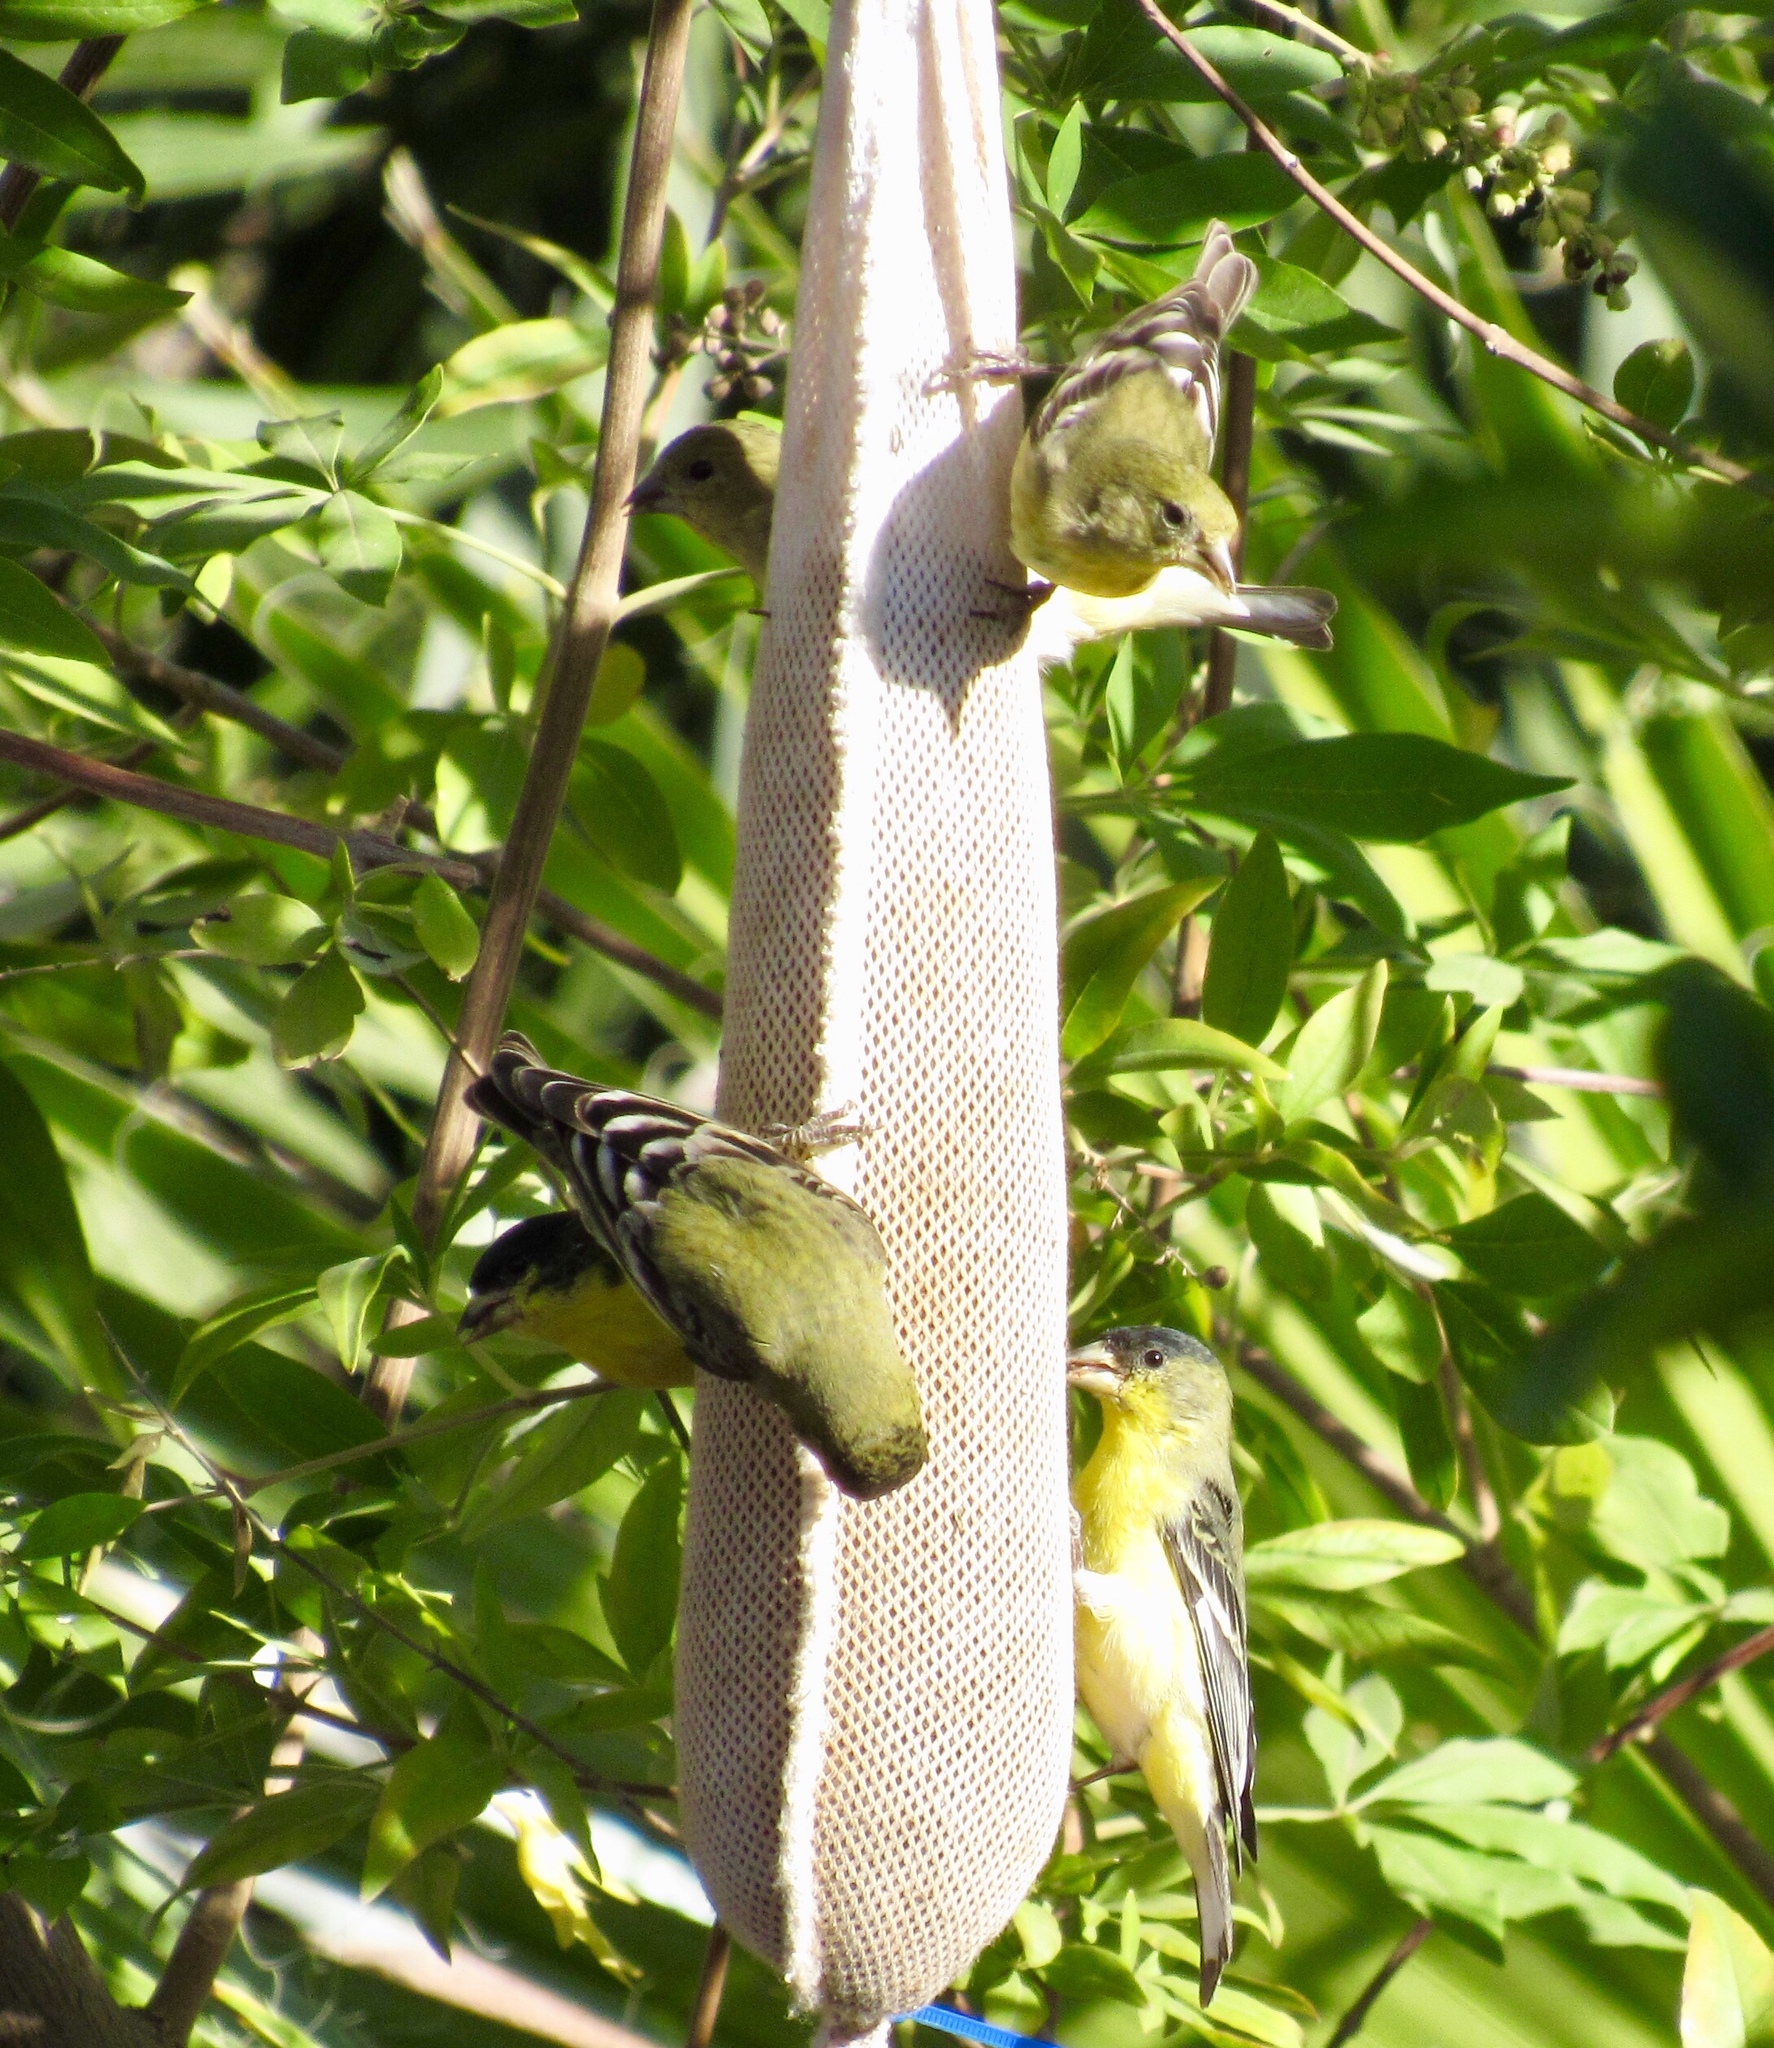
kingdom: Animalia
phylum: Chordata
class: Aves
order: Passeriformes
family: Fringillidae
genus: Spinus
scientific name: Spinus psaltria
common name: Lesser goldfinch
